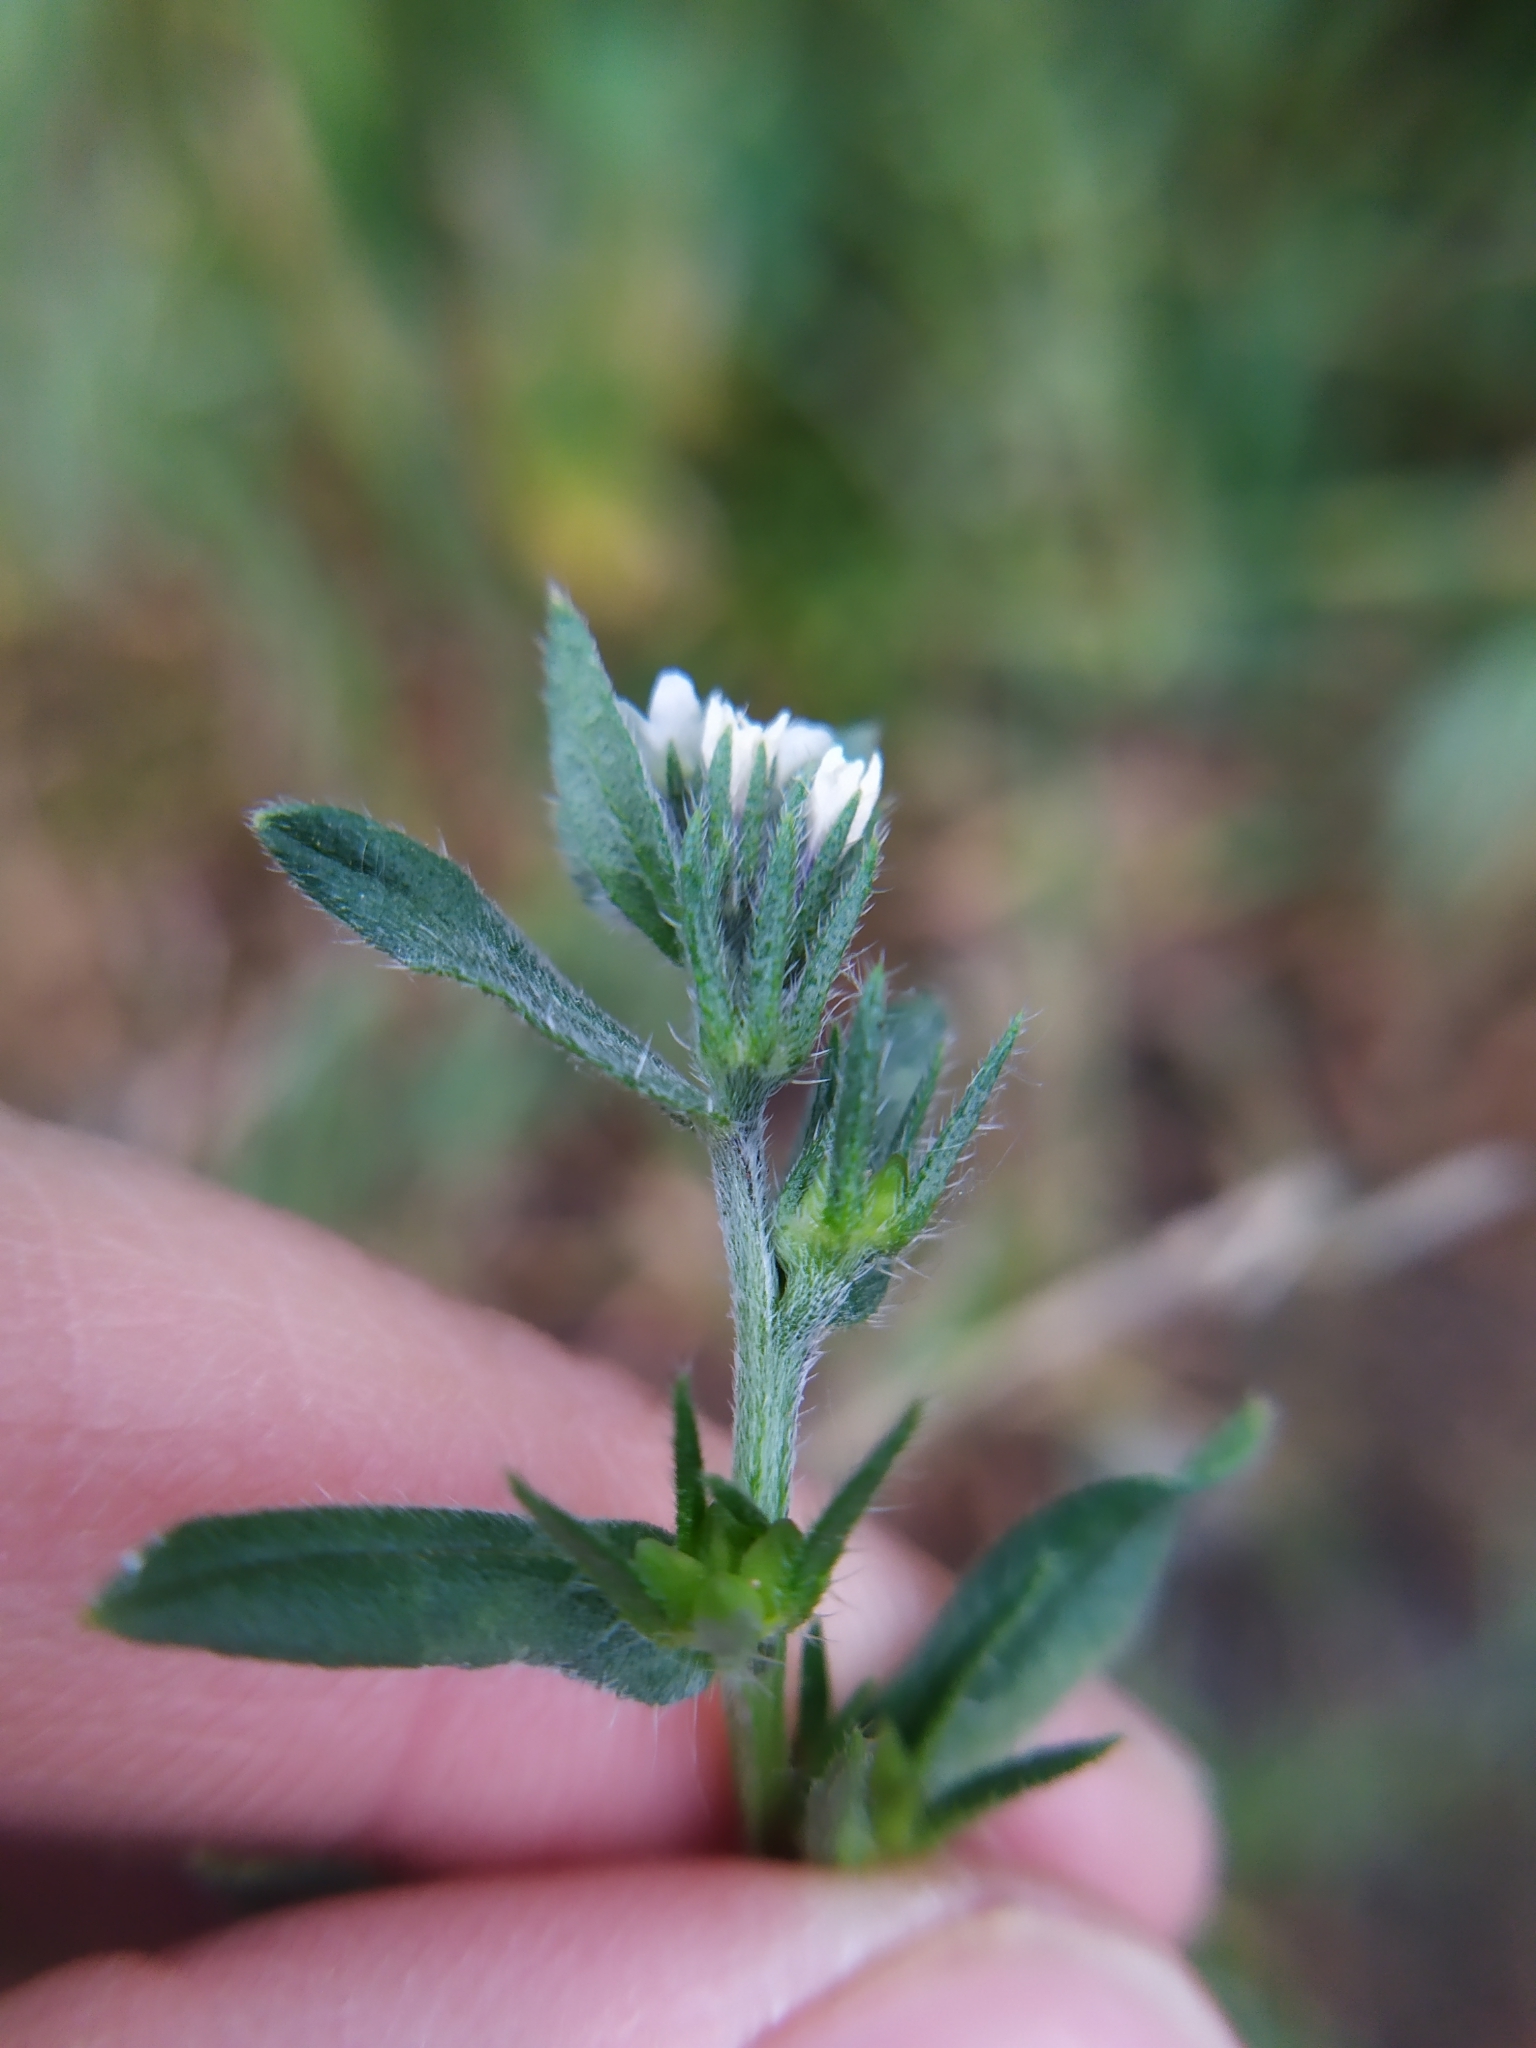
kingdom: Plantae
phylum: Tracheophyta
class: Magnoliopsida
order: Boraginales
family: Boraginaceae
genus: Buglossoides
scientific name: Buglossoides incrassata
